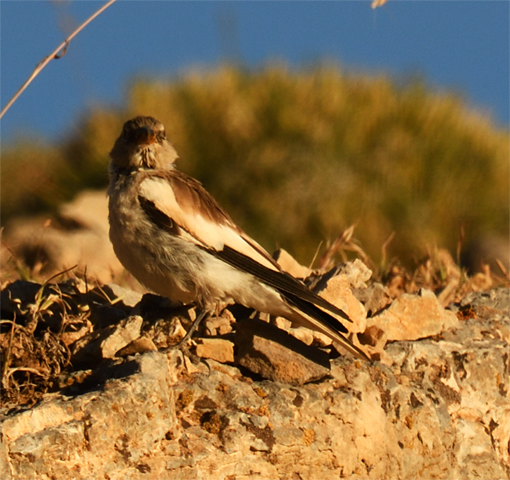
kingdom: Animalia
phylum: Chordata
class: Aves
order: Passeriformes
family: Passeridae
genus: Montifringilla
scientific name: Montifringilla nivalis
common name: White-winged snowfinch
